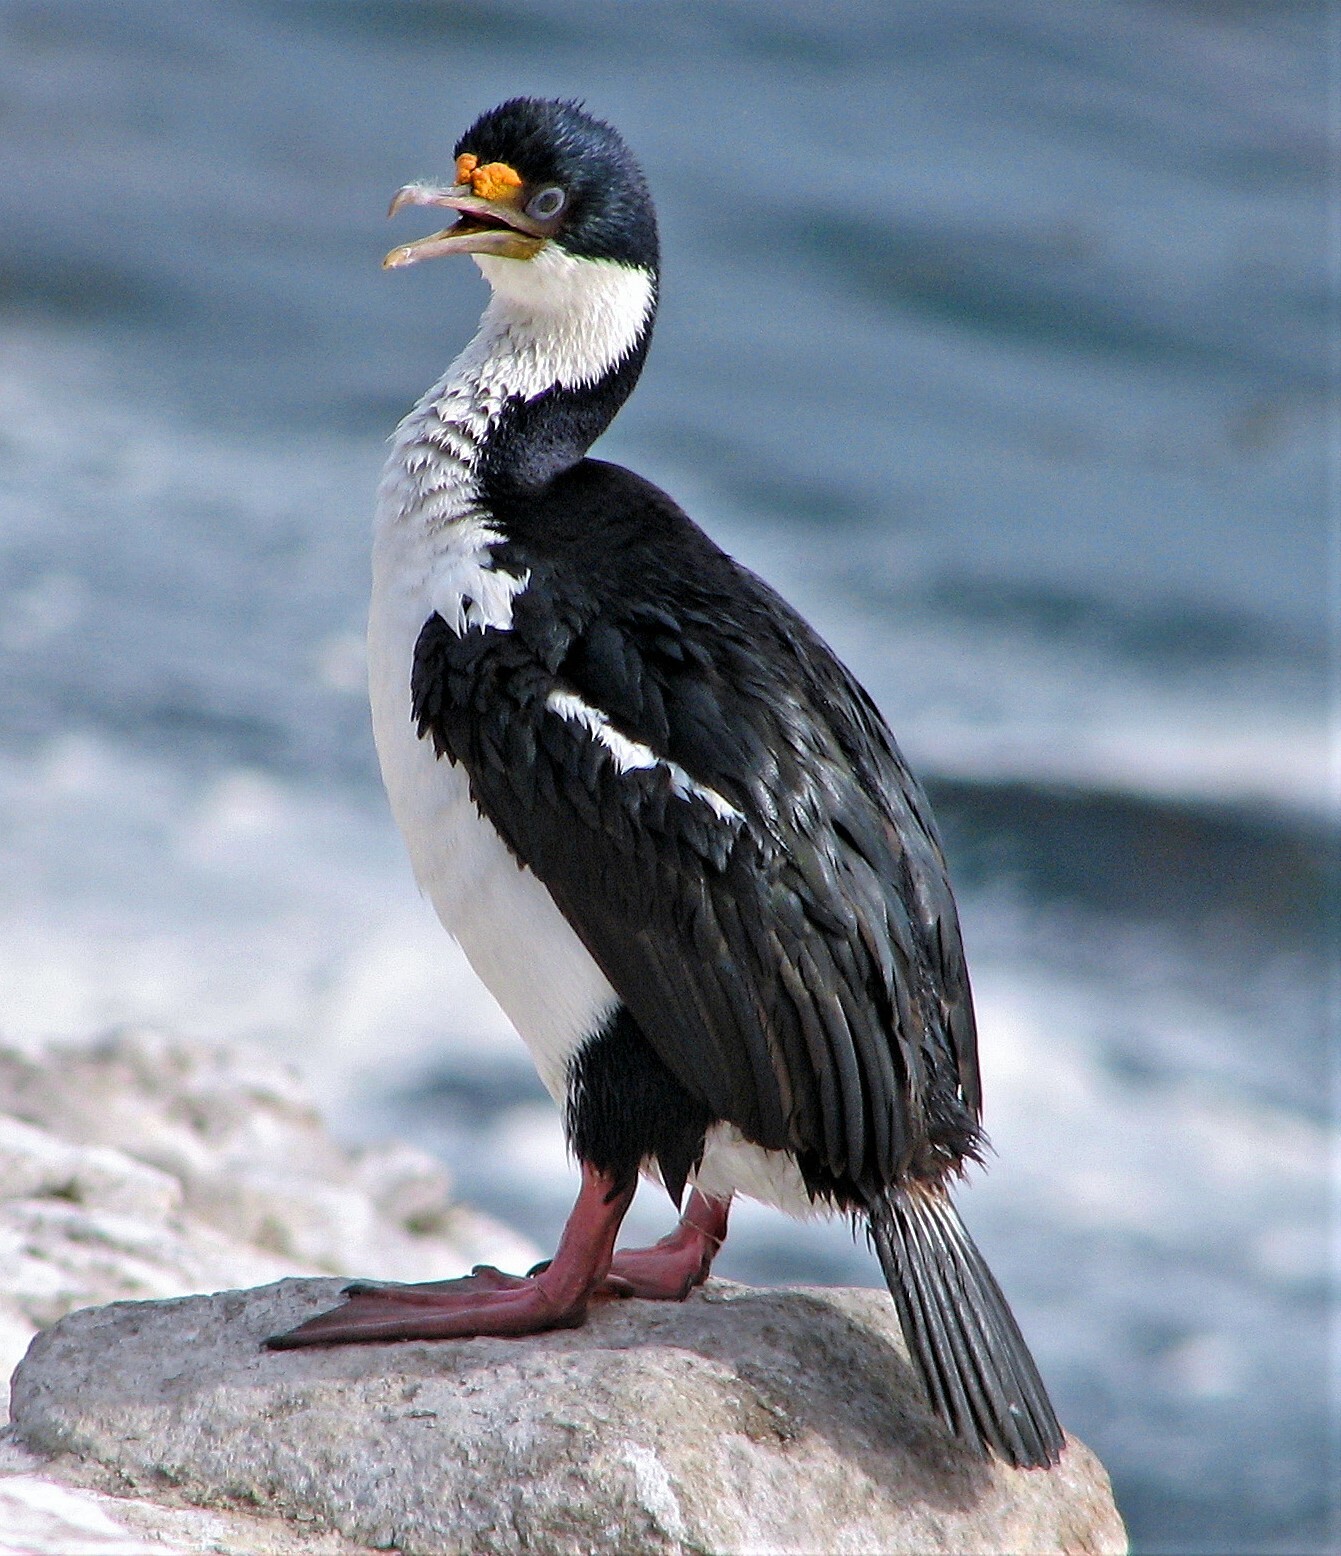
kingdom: Animalia
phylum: Chordata
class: Aves
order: Suliformes
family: Phalacrocoracidae
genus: Leucocarbo
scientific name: Leucocarbo atriceps
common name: Imperial shag
